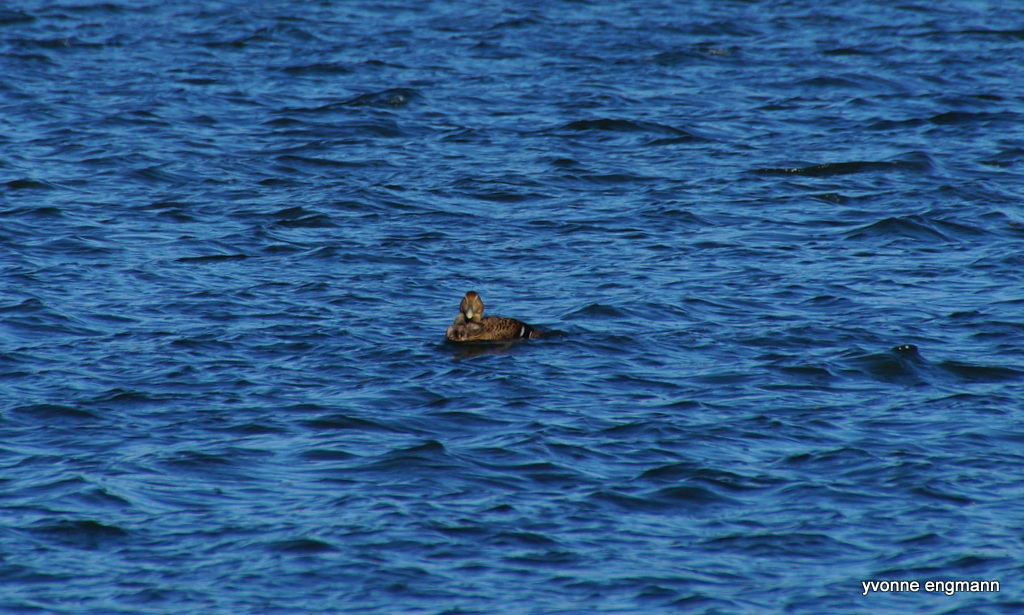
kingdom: Animalia
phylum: Chordata
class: Aves
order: Anseriformes
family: Anatidae
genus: Somateria
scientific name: Somateria mollissima
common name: Common eider
